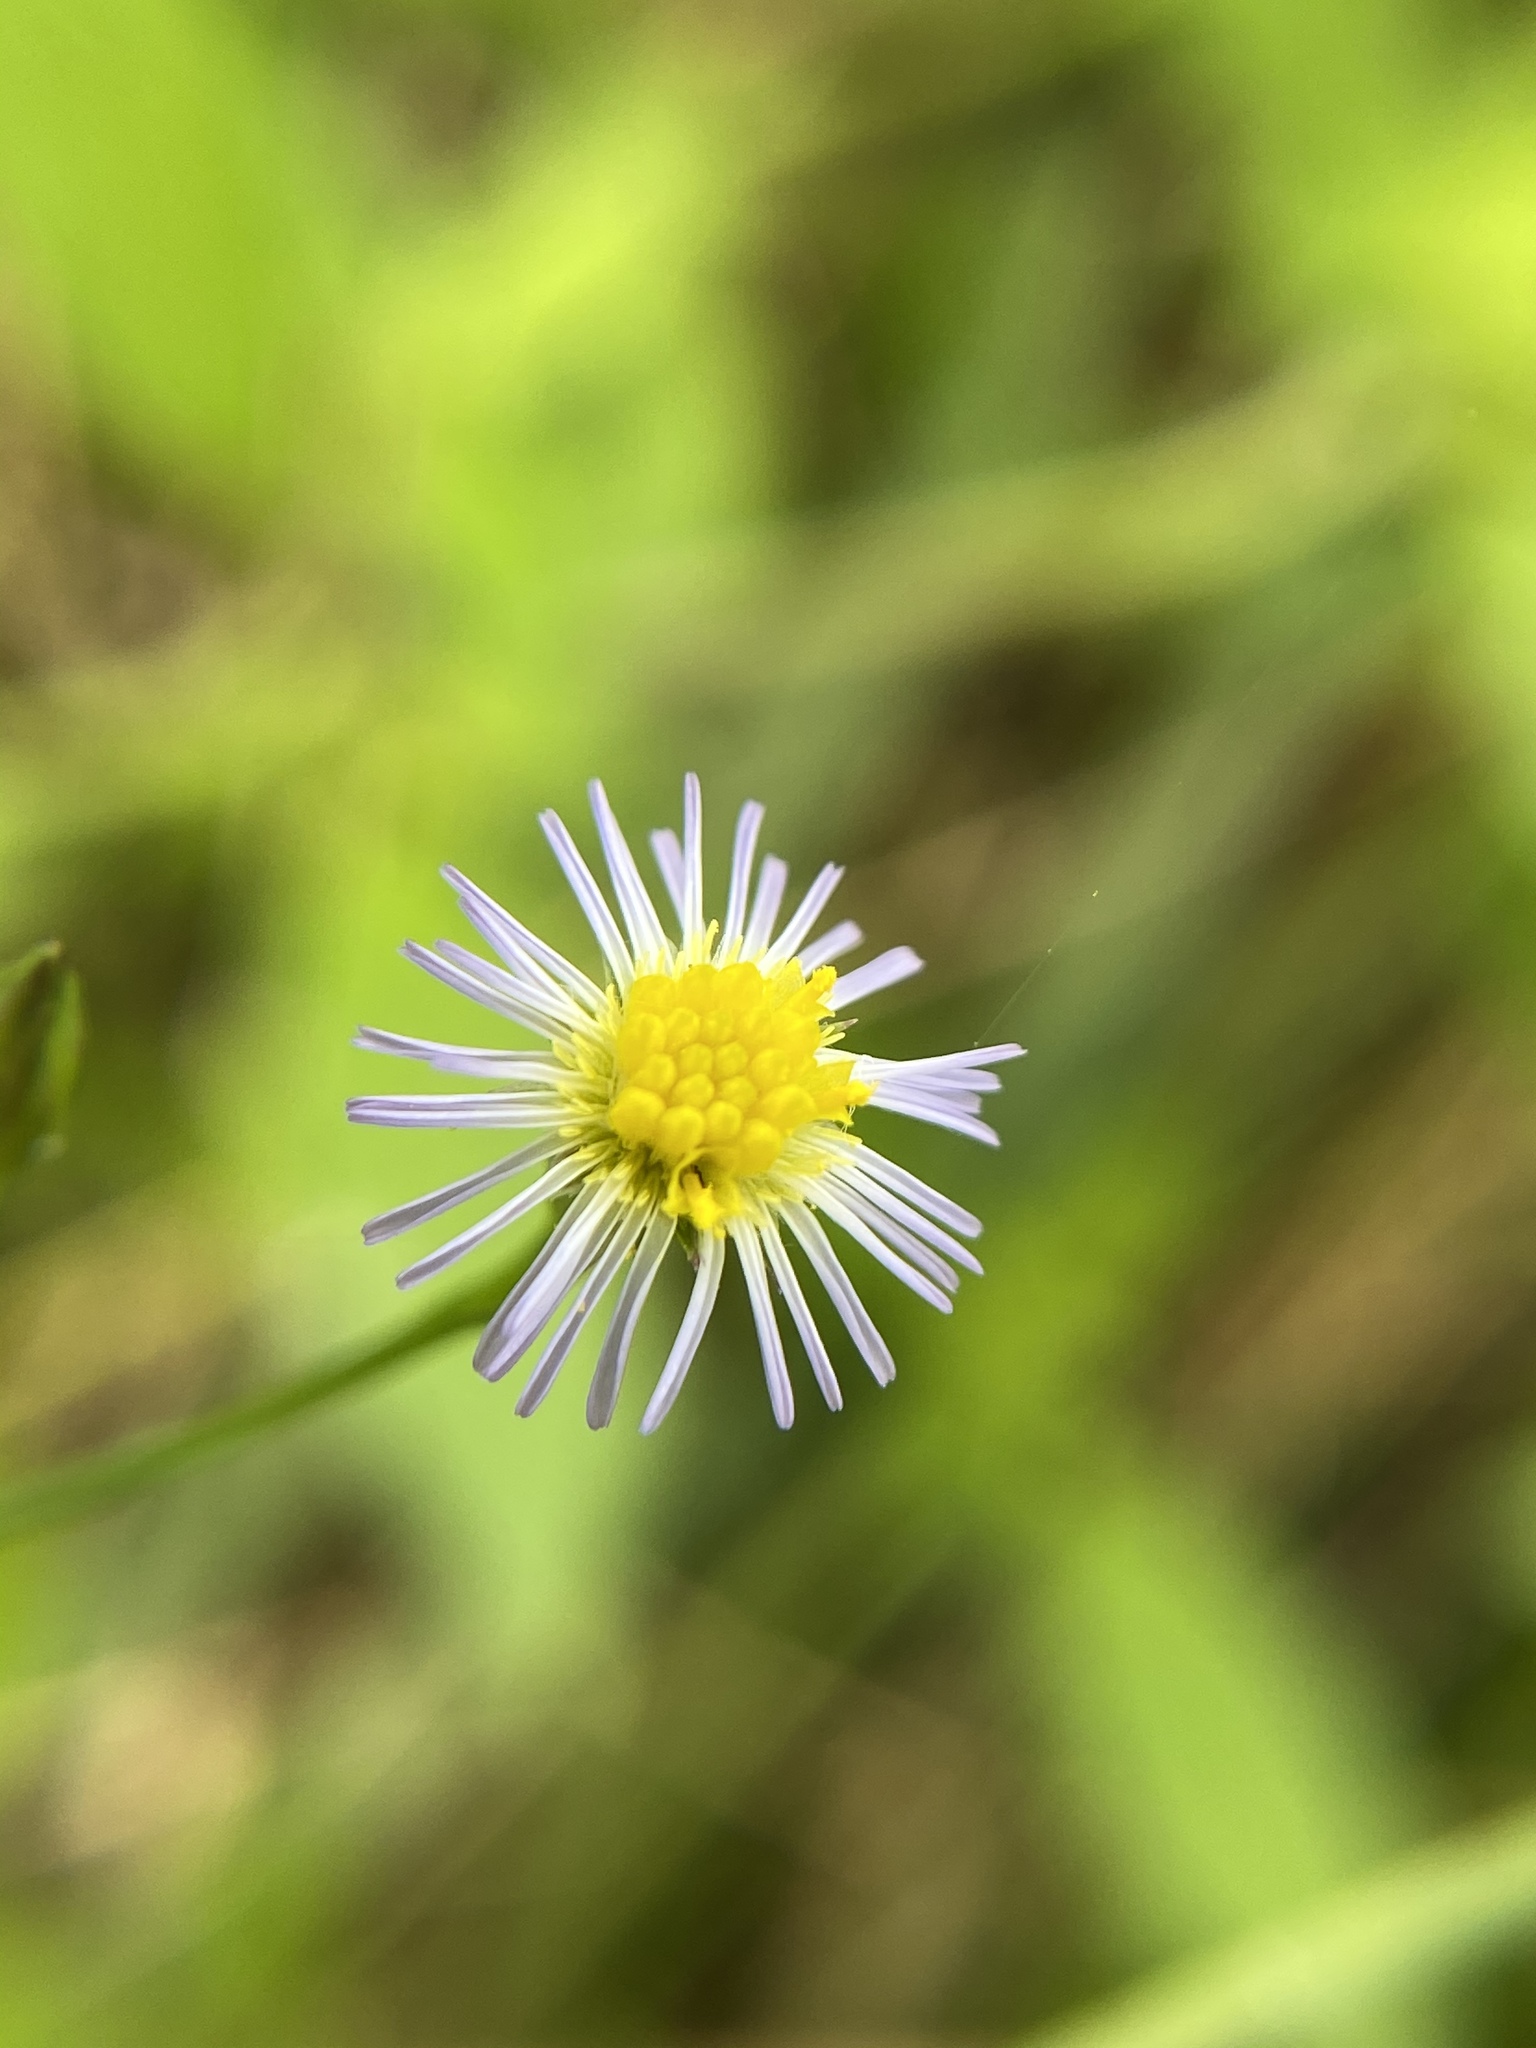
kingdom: Plantae
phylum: Tracheophyta
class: Magnoliopsida
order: Asterales
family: Asteraceae
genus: Symphyotrichum
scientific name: Symphyotrichum subulatum
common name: Annual saltmarsh aster
